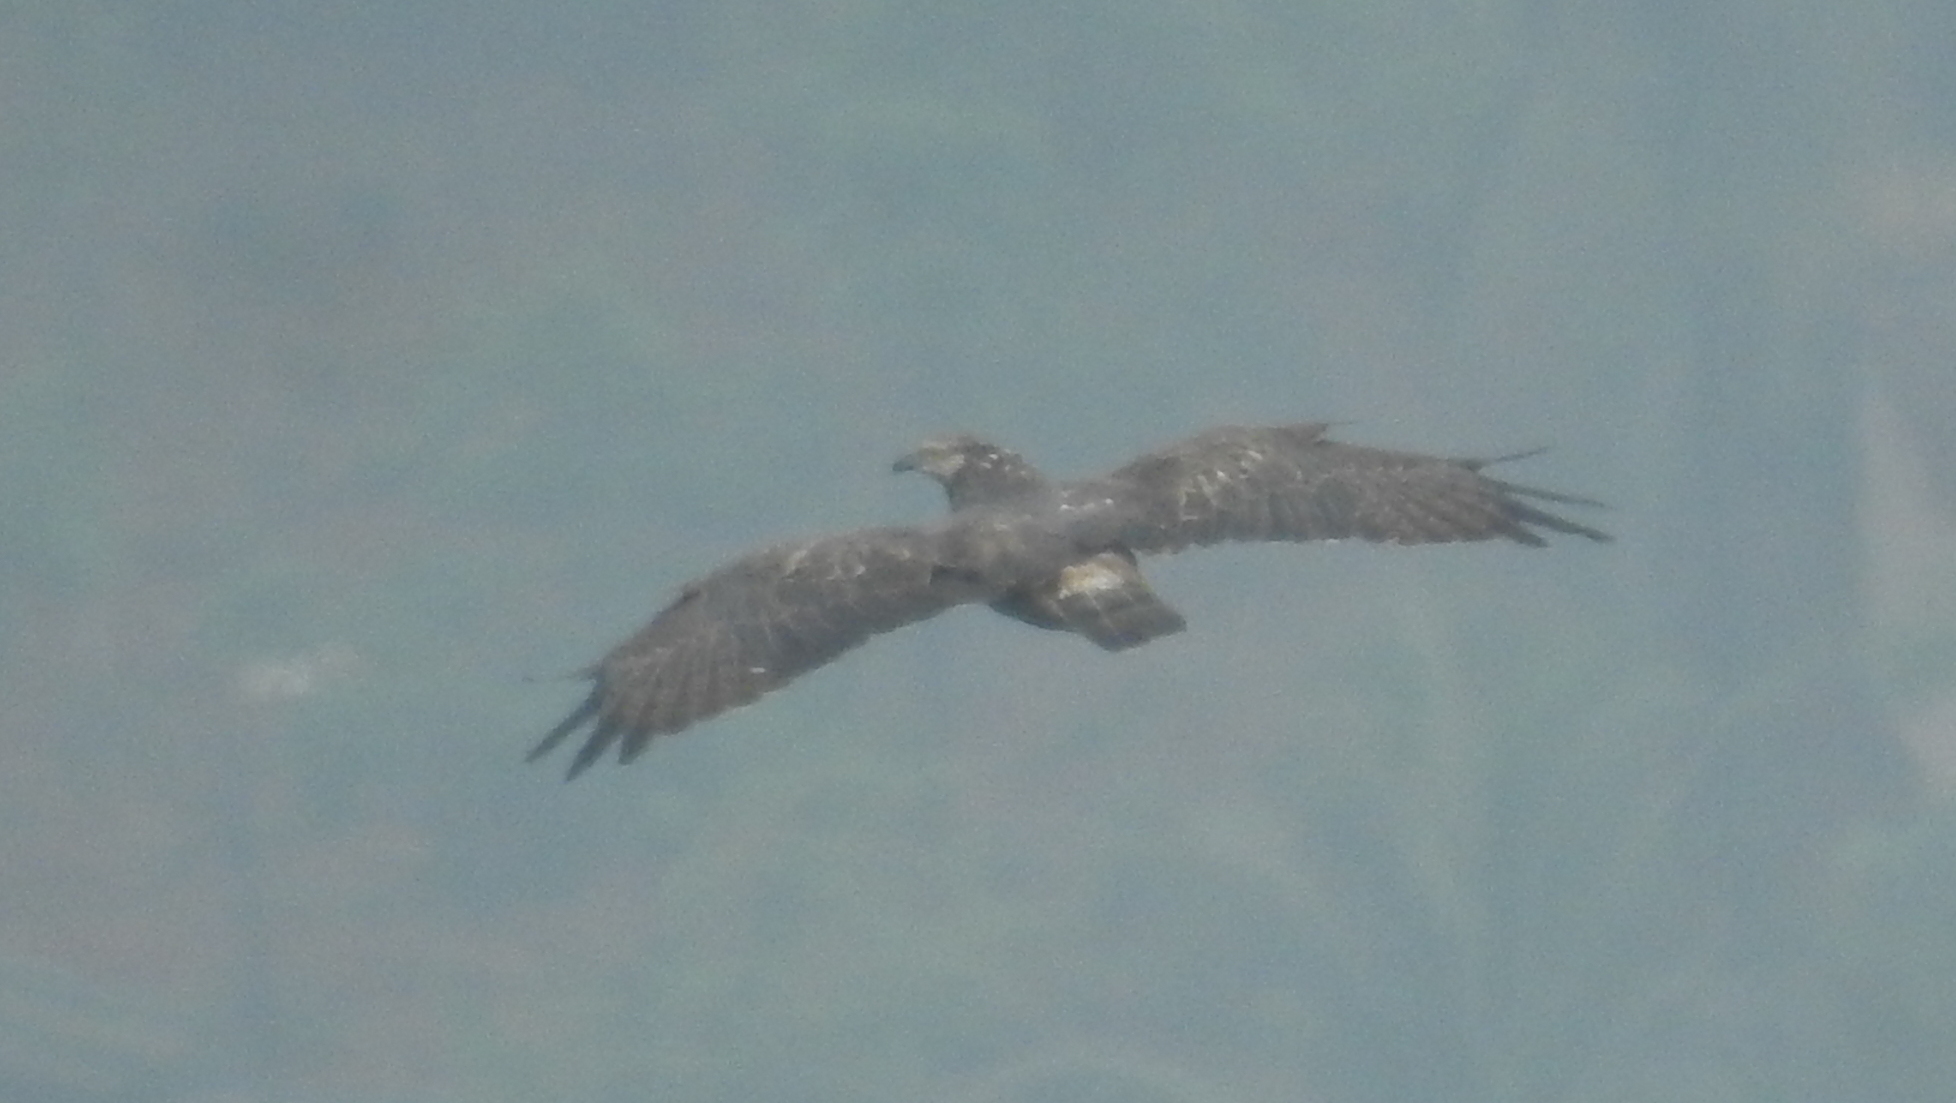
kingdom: Animalia
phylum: Chordata
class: Aves
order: Accipitriformes
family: Accipitridae
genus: Pernis
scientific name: Pernis ptilorhynchus
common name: Crested honey buzzard
